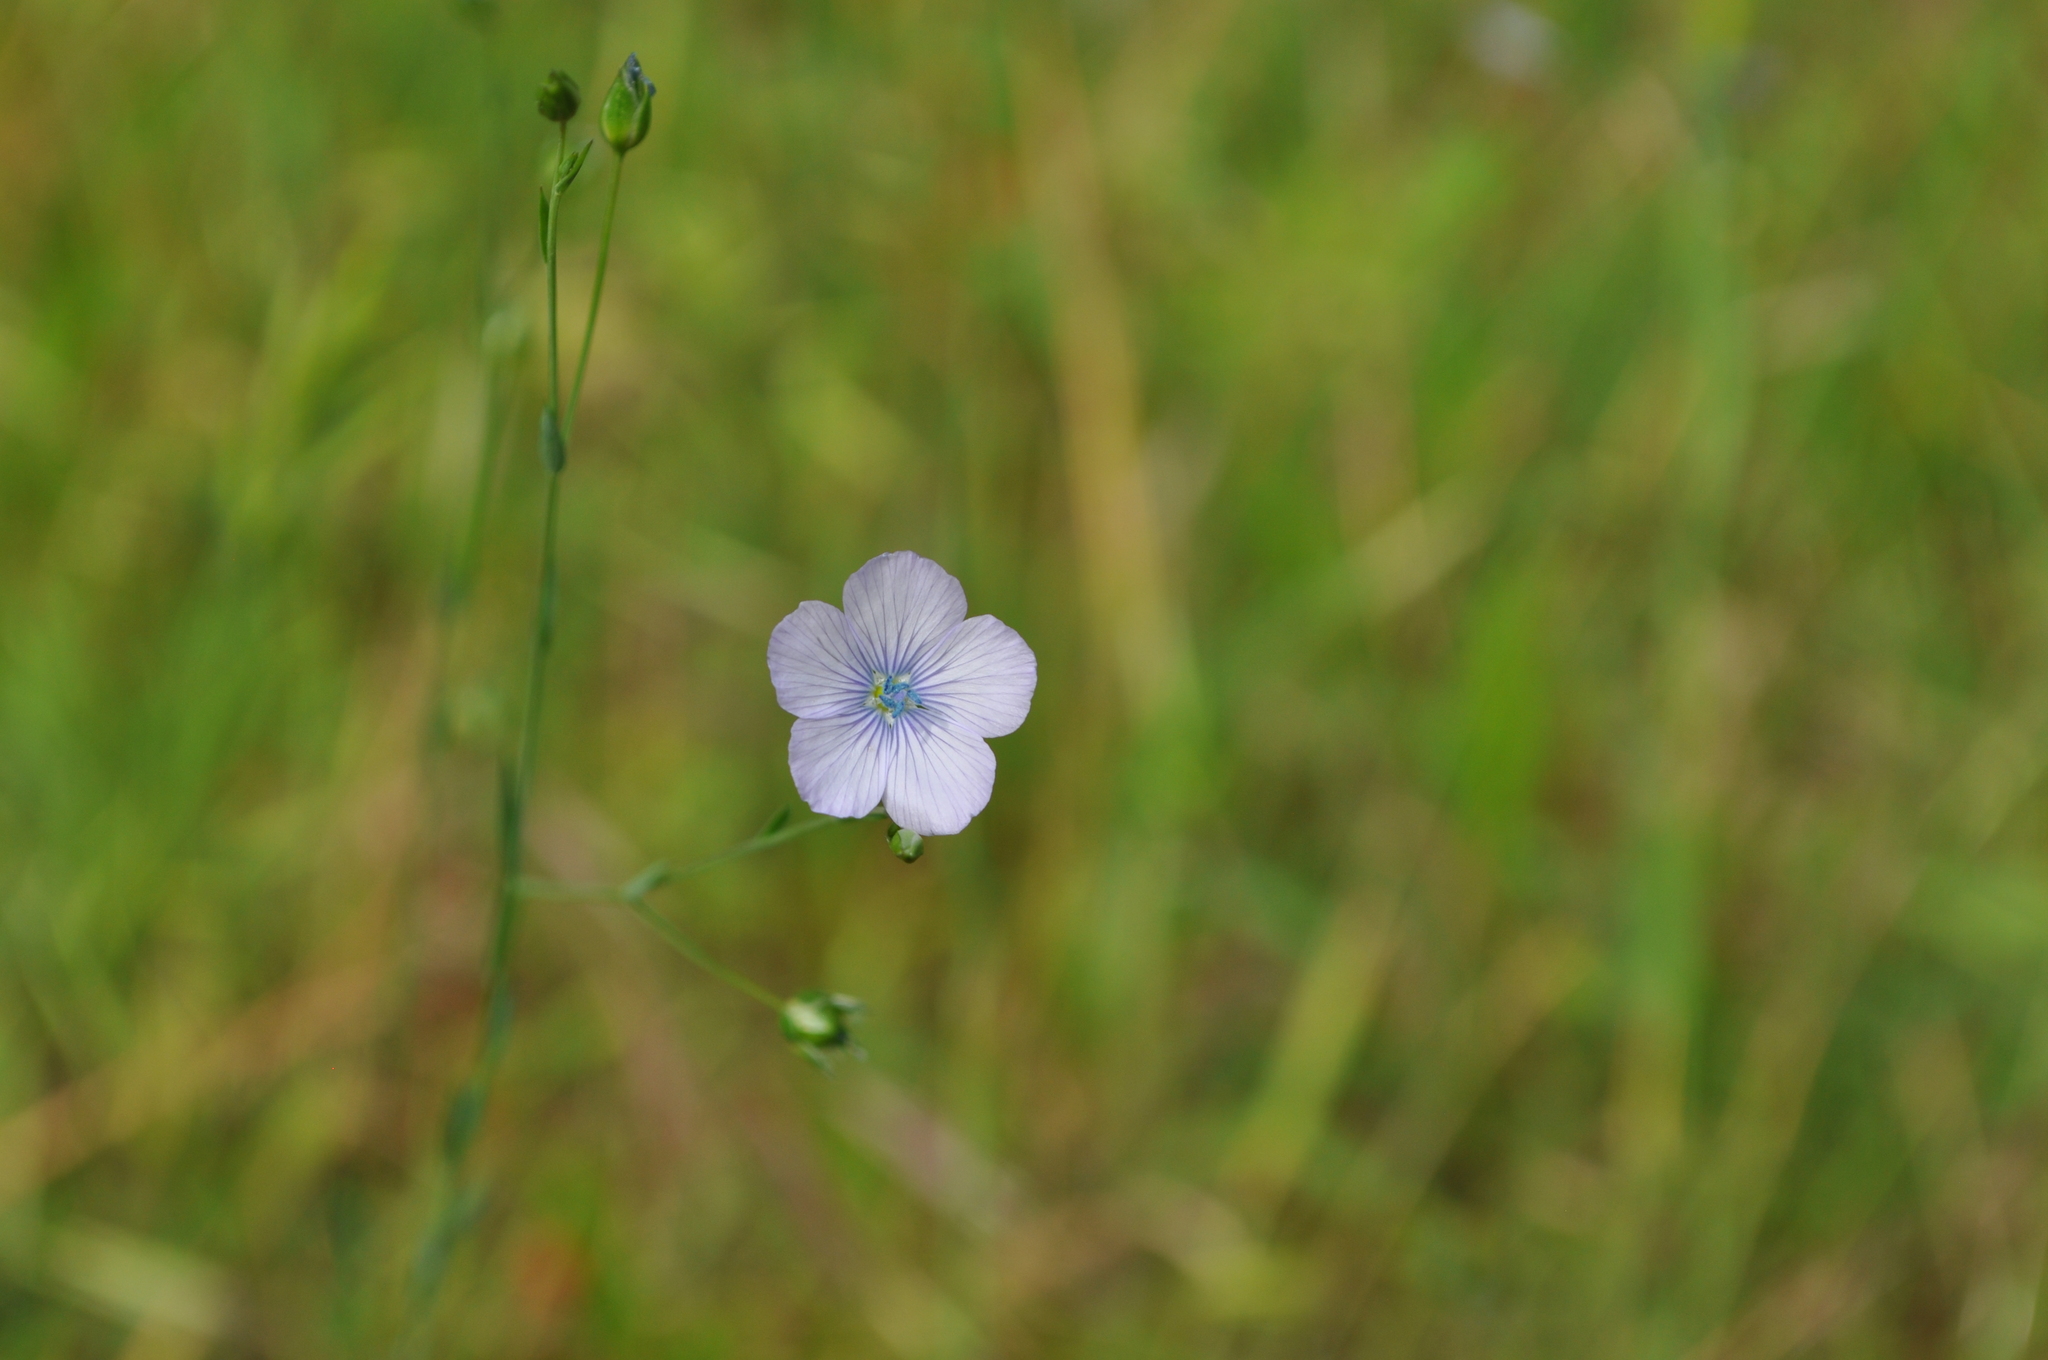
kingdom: Plantae
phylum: Tracheophyta
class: Magnoliopsida
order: Malpighiales
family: Linaceae
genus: Linum
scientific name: Linum bienne
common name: Pale flax
